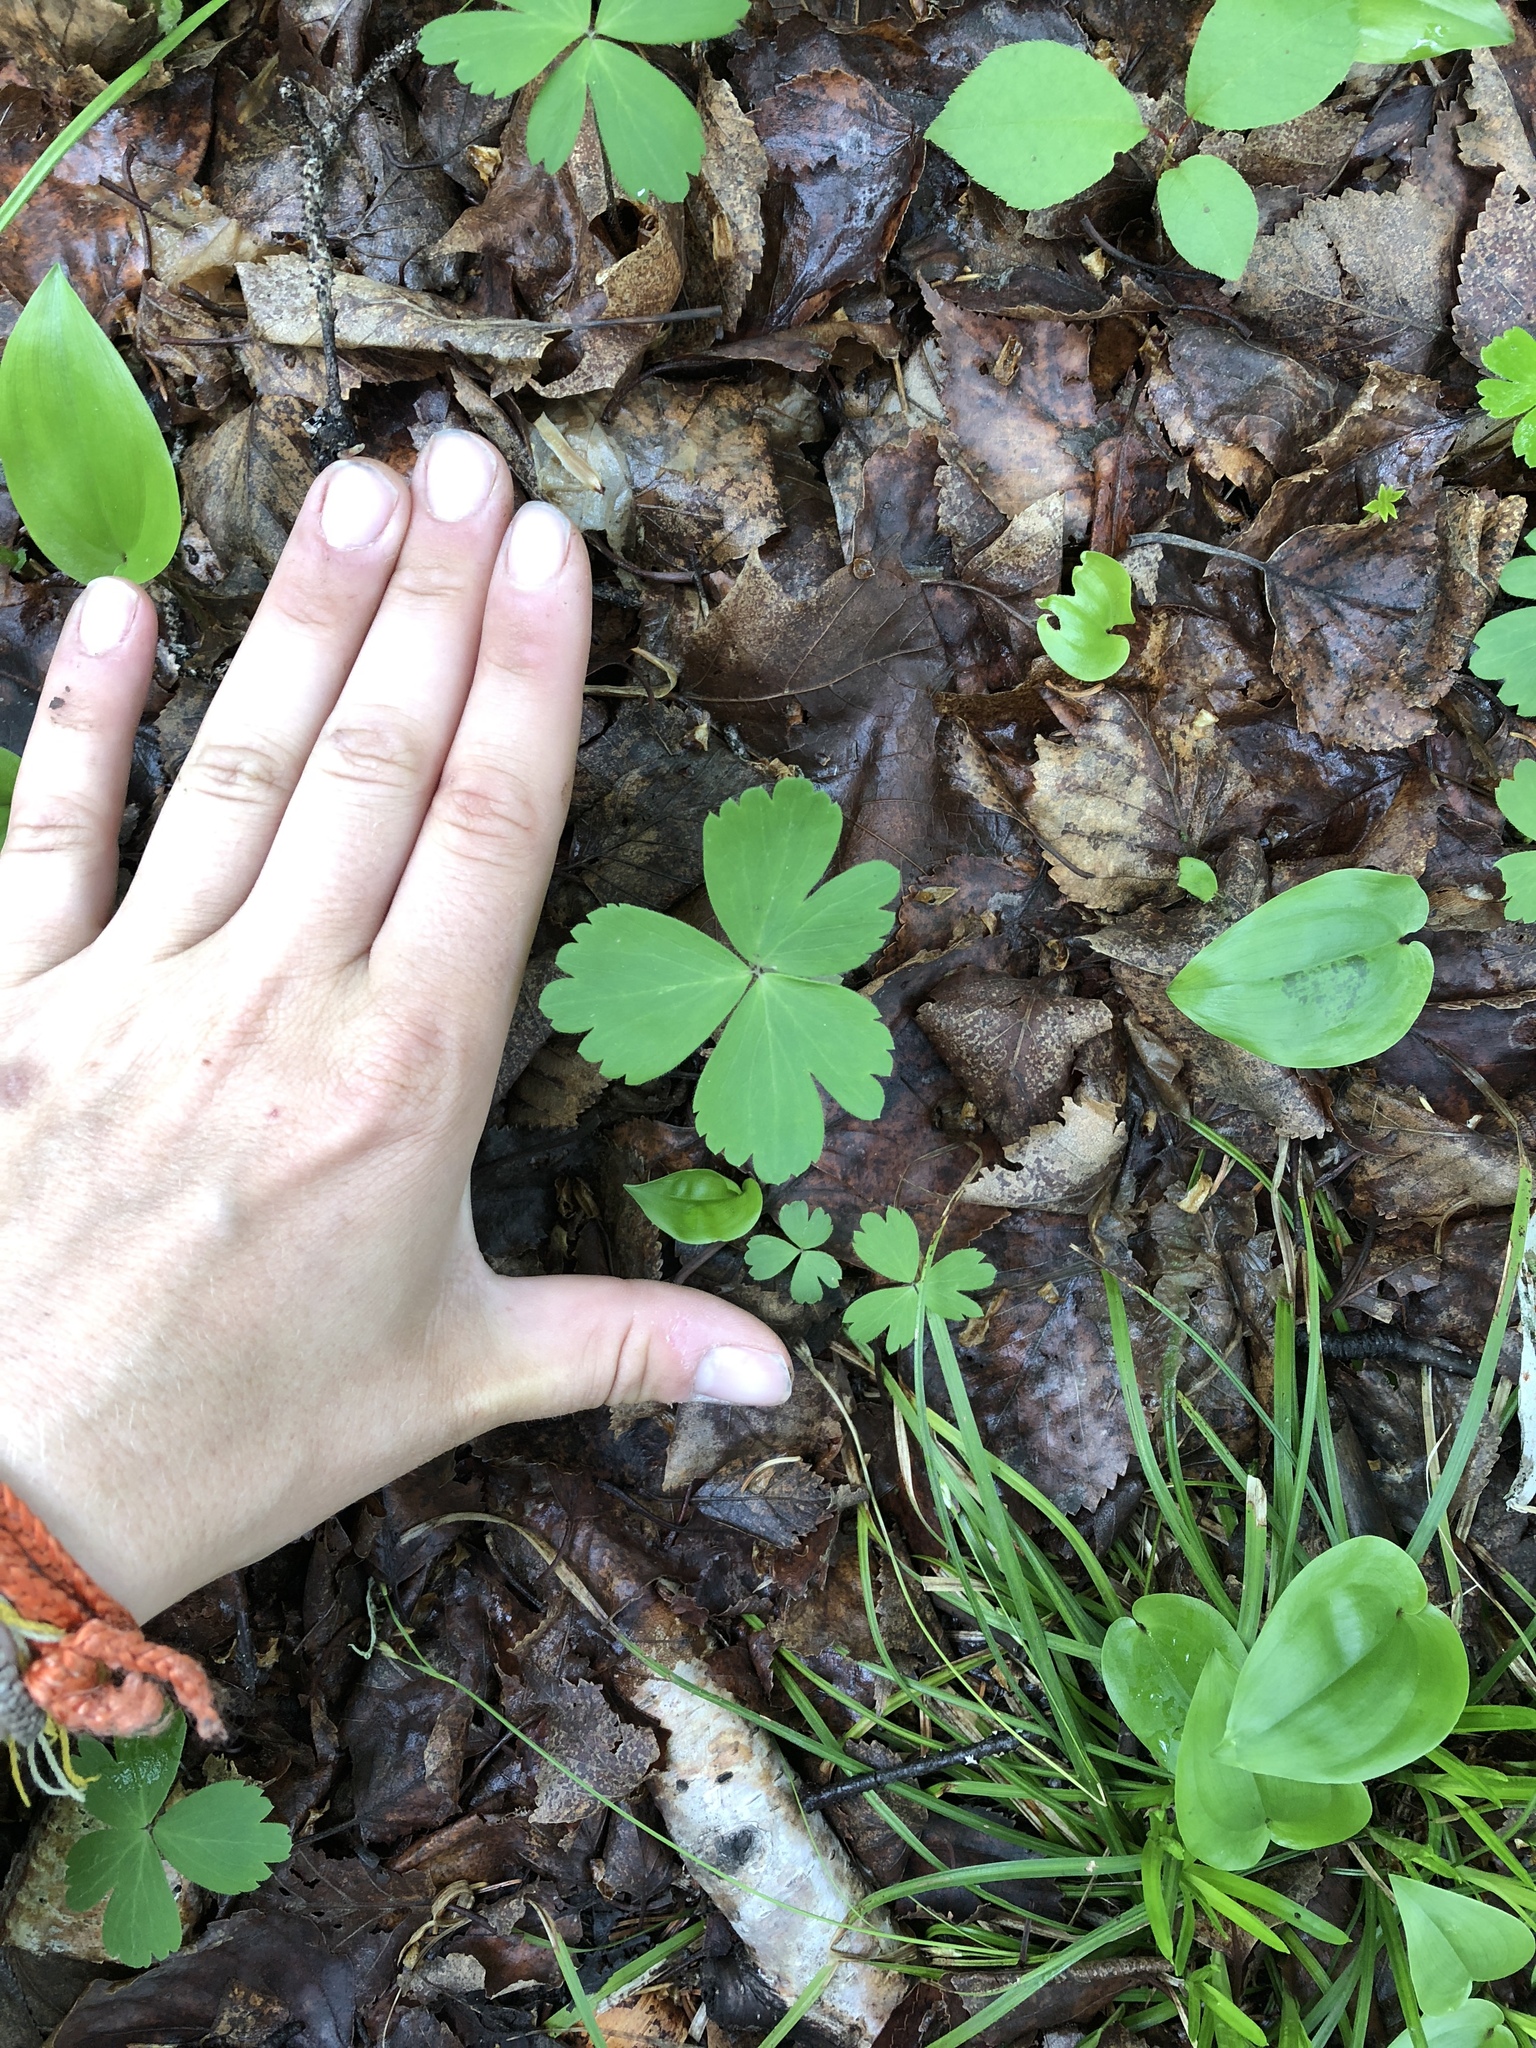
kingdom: Plantae
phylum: Tracheophyta
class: Magnoliopsida
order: Ranunculales
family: Ranunculaceae
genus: Anemone
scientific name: Anemone quinquefolia
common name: Wood anemone
